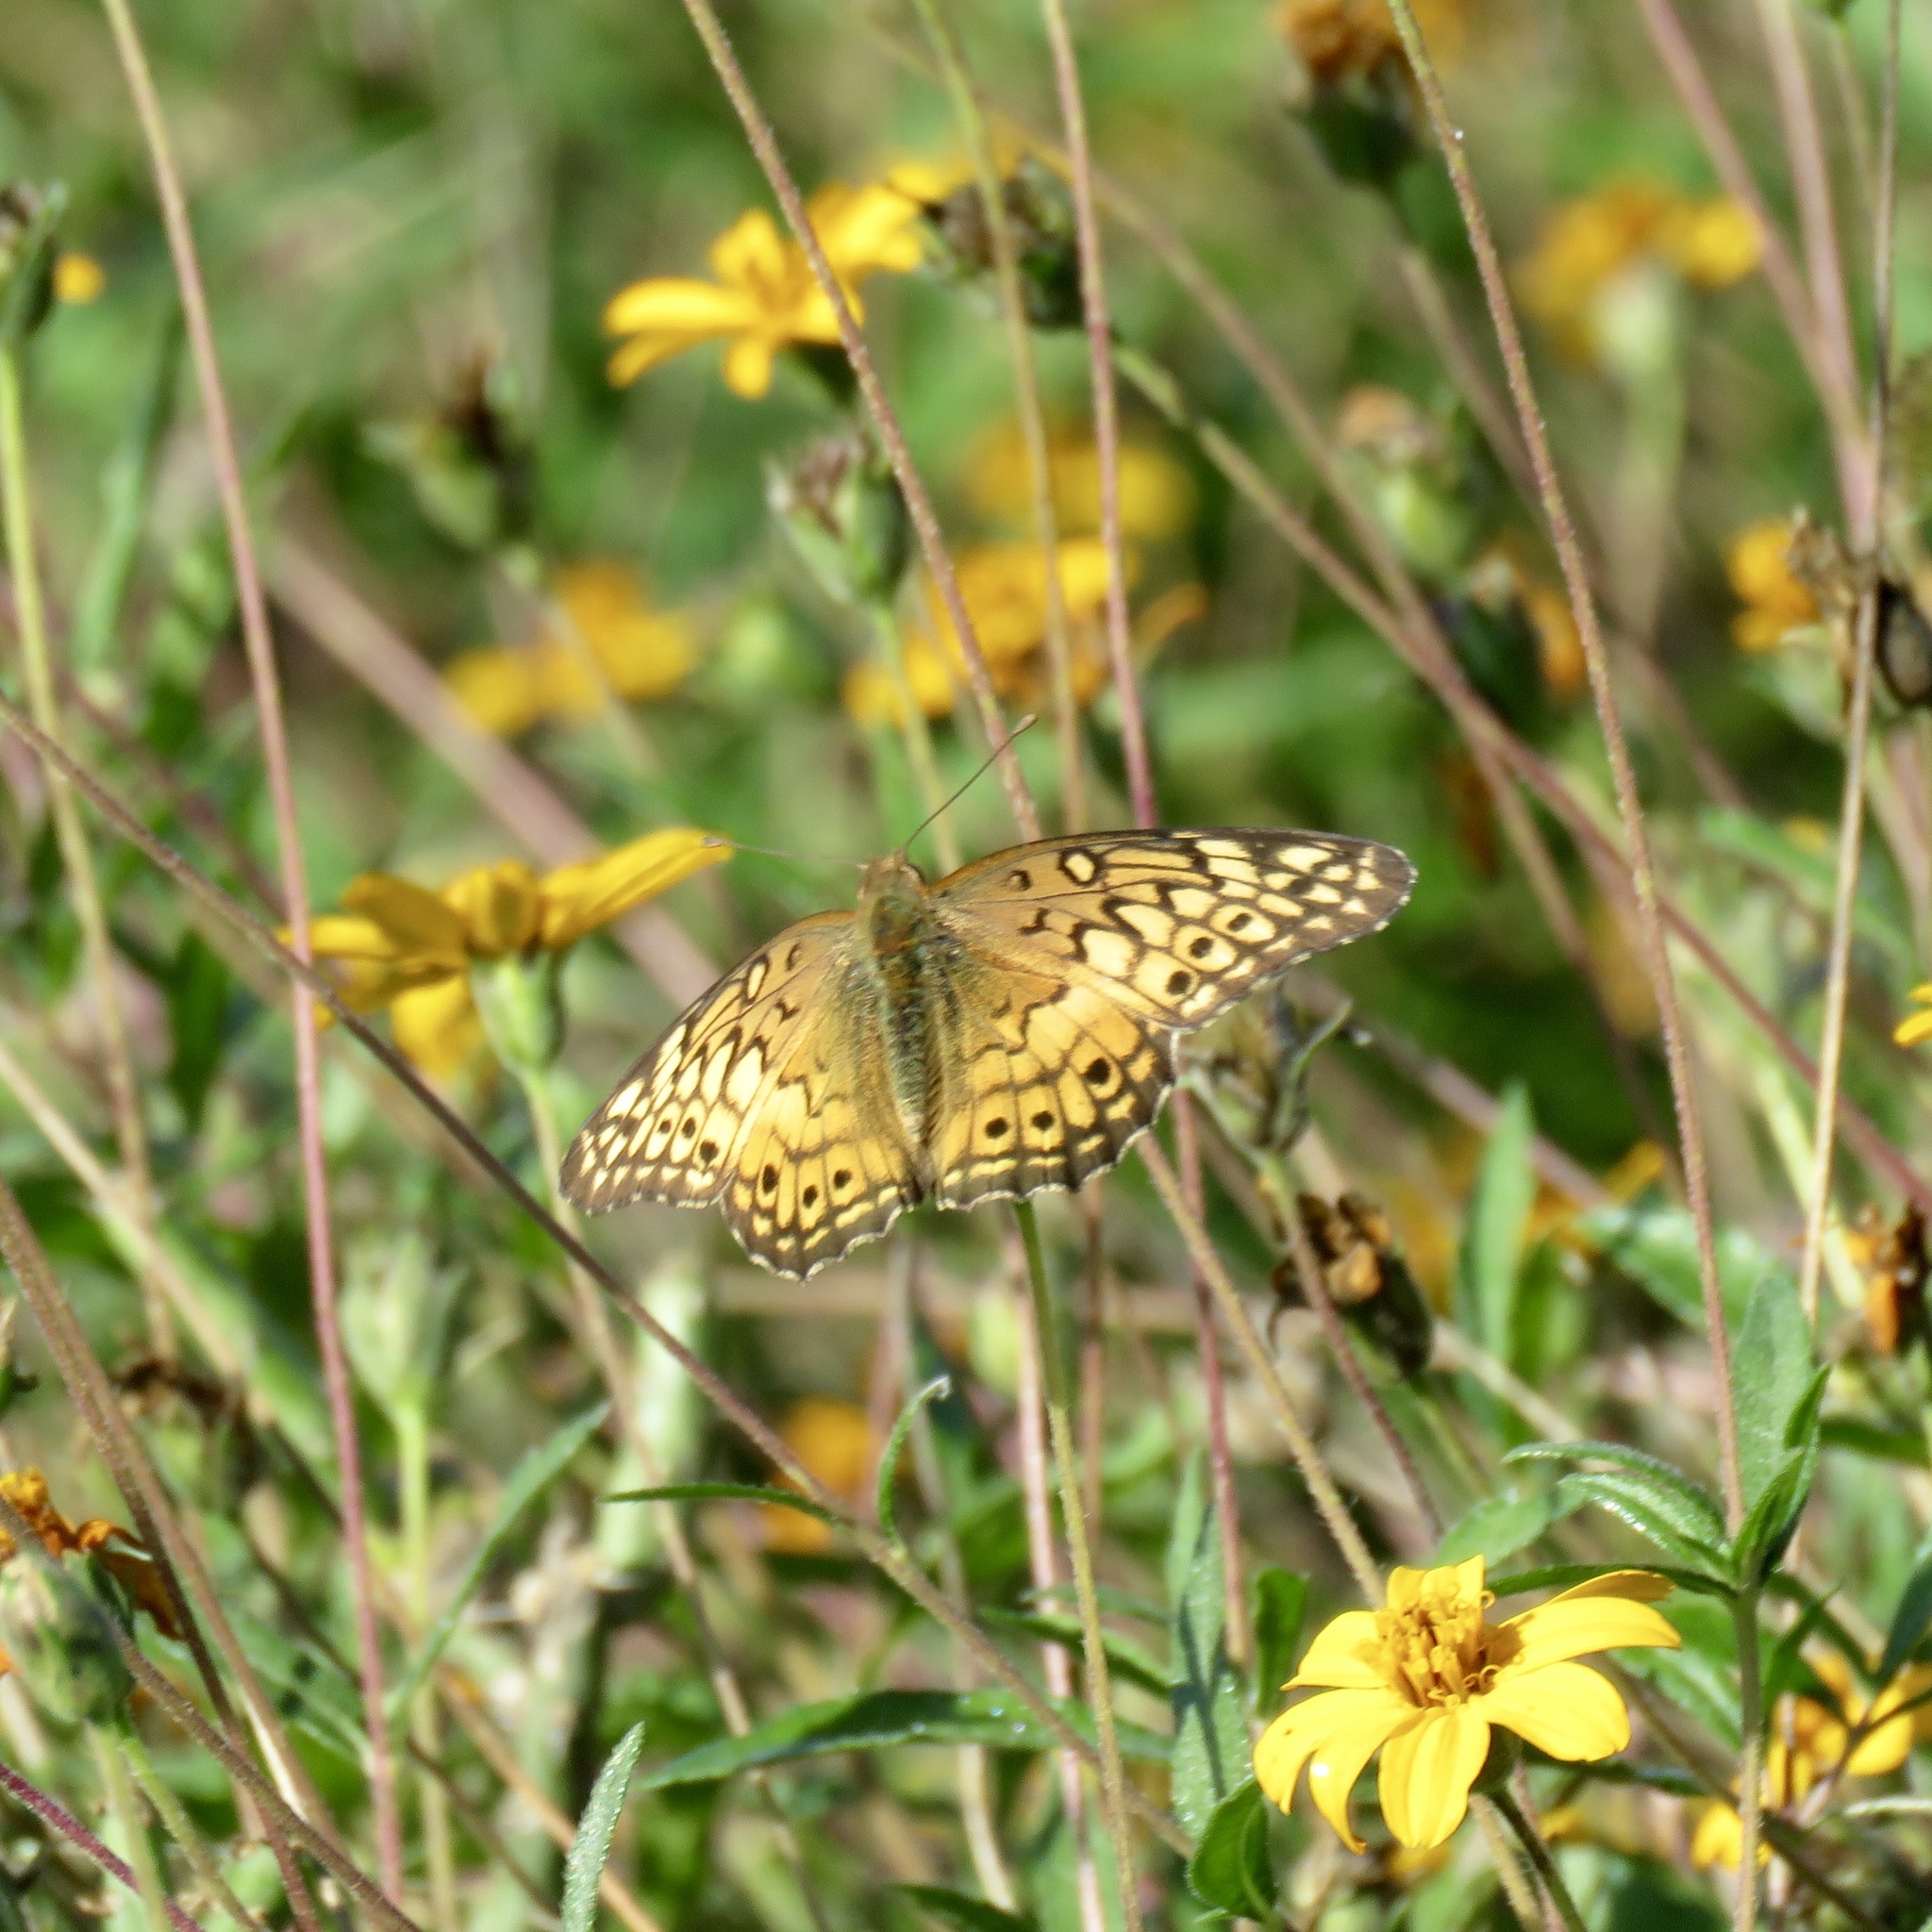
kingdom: Animalia
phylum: Arthropoda
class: Insecta
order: Lepidoptera
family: Nymphalidae
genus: Euptoieta
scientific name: Euptoieta claudia
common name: Variegated fritillary
